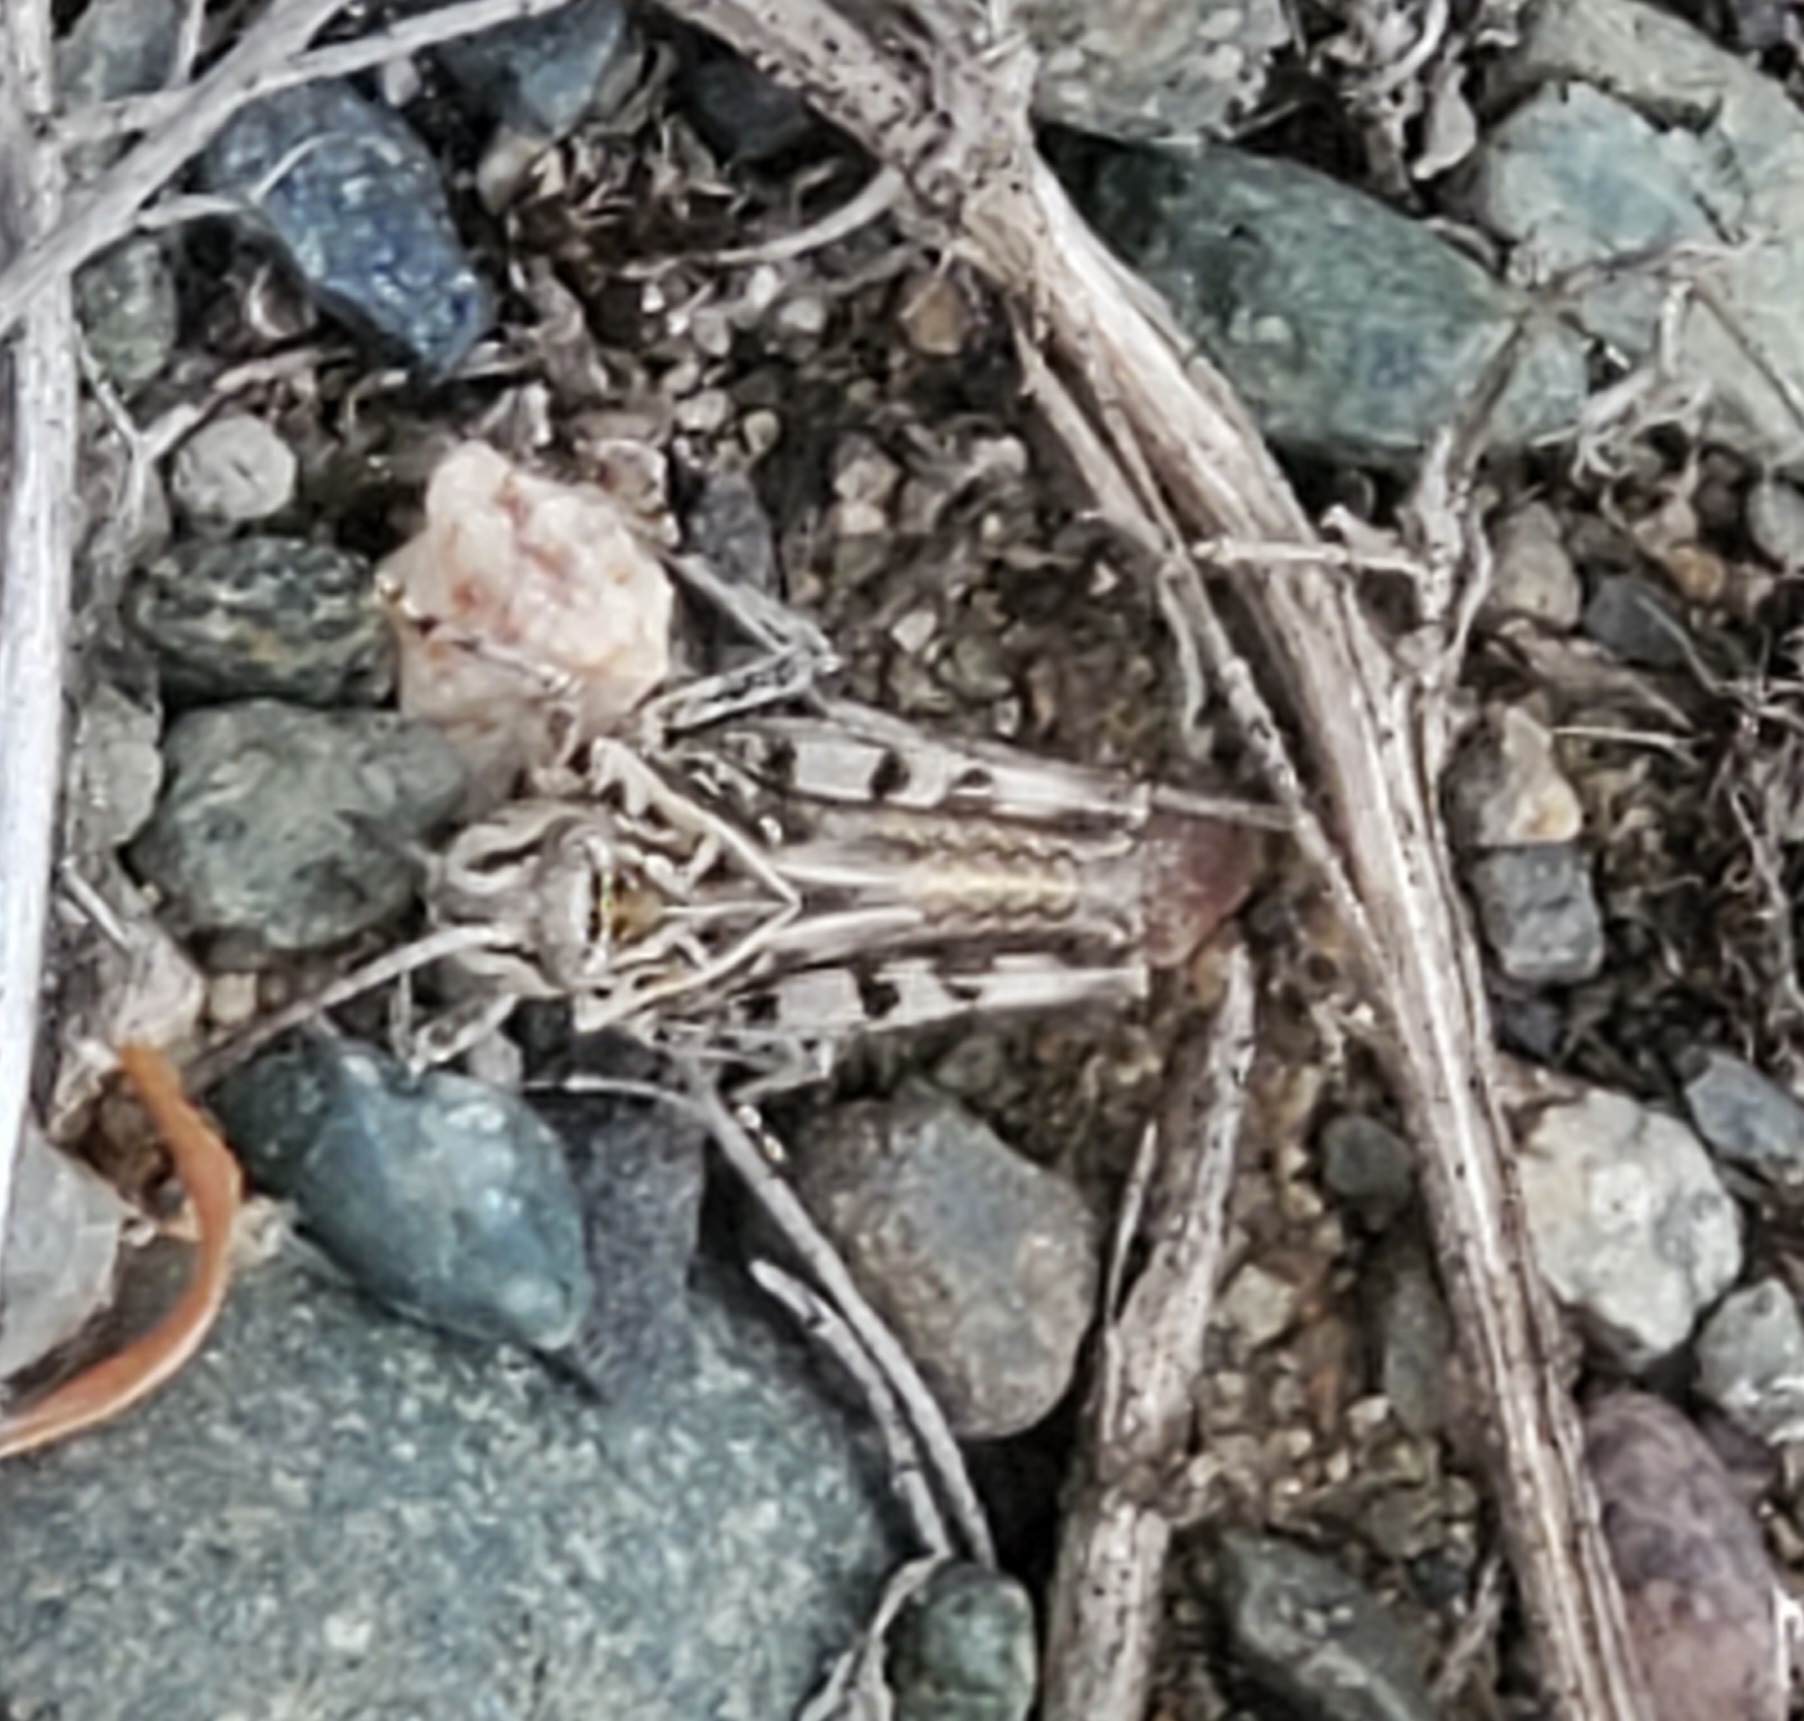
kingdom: Animalia
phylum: Arthropoda
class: Insecta
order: Orthoptera
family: Acrididae
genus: Trachyrhachys
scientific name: Trachyrhachys kiowa
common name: Kiowa grasshopper
